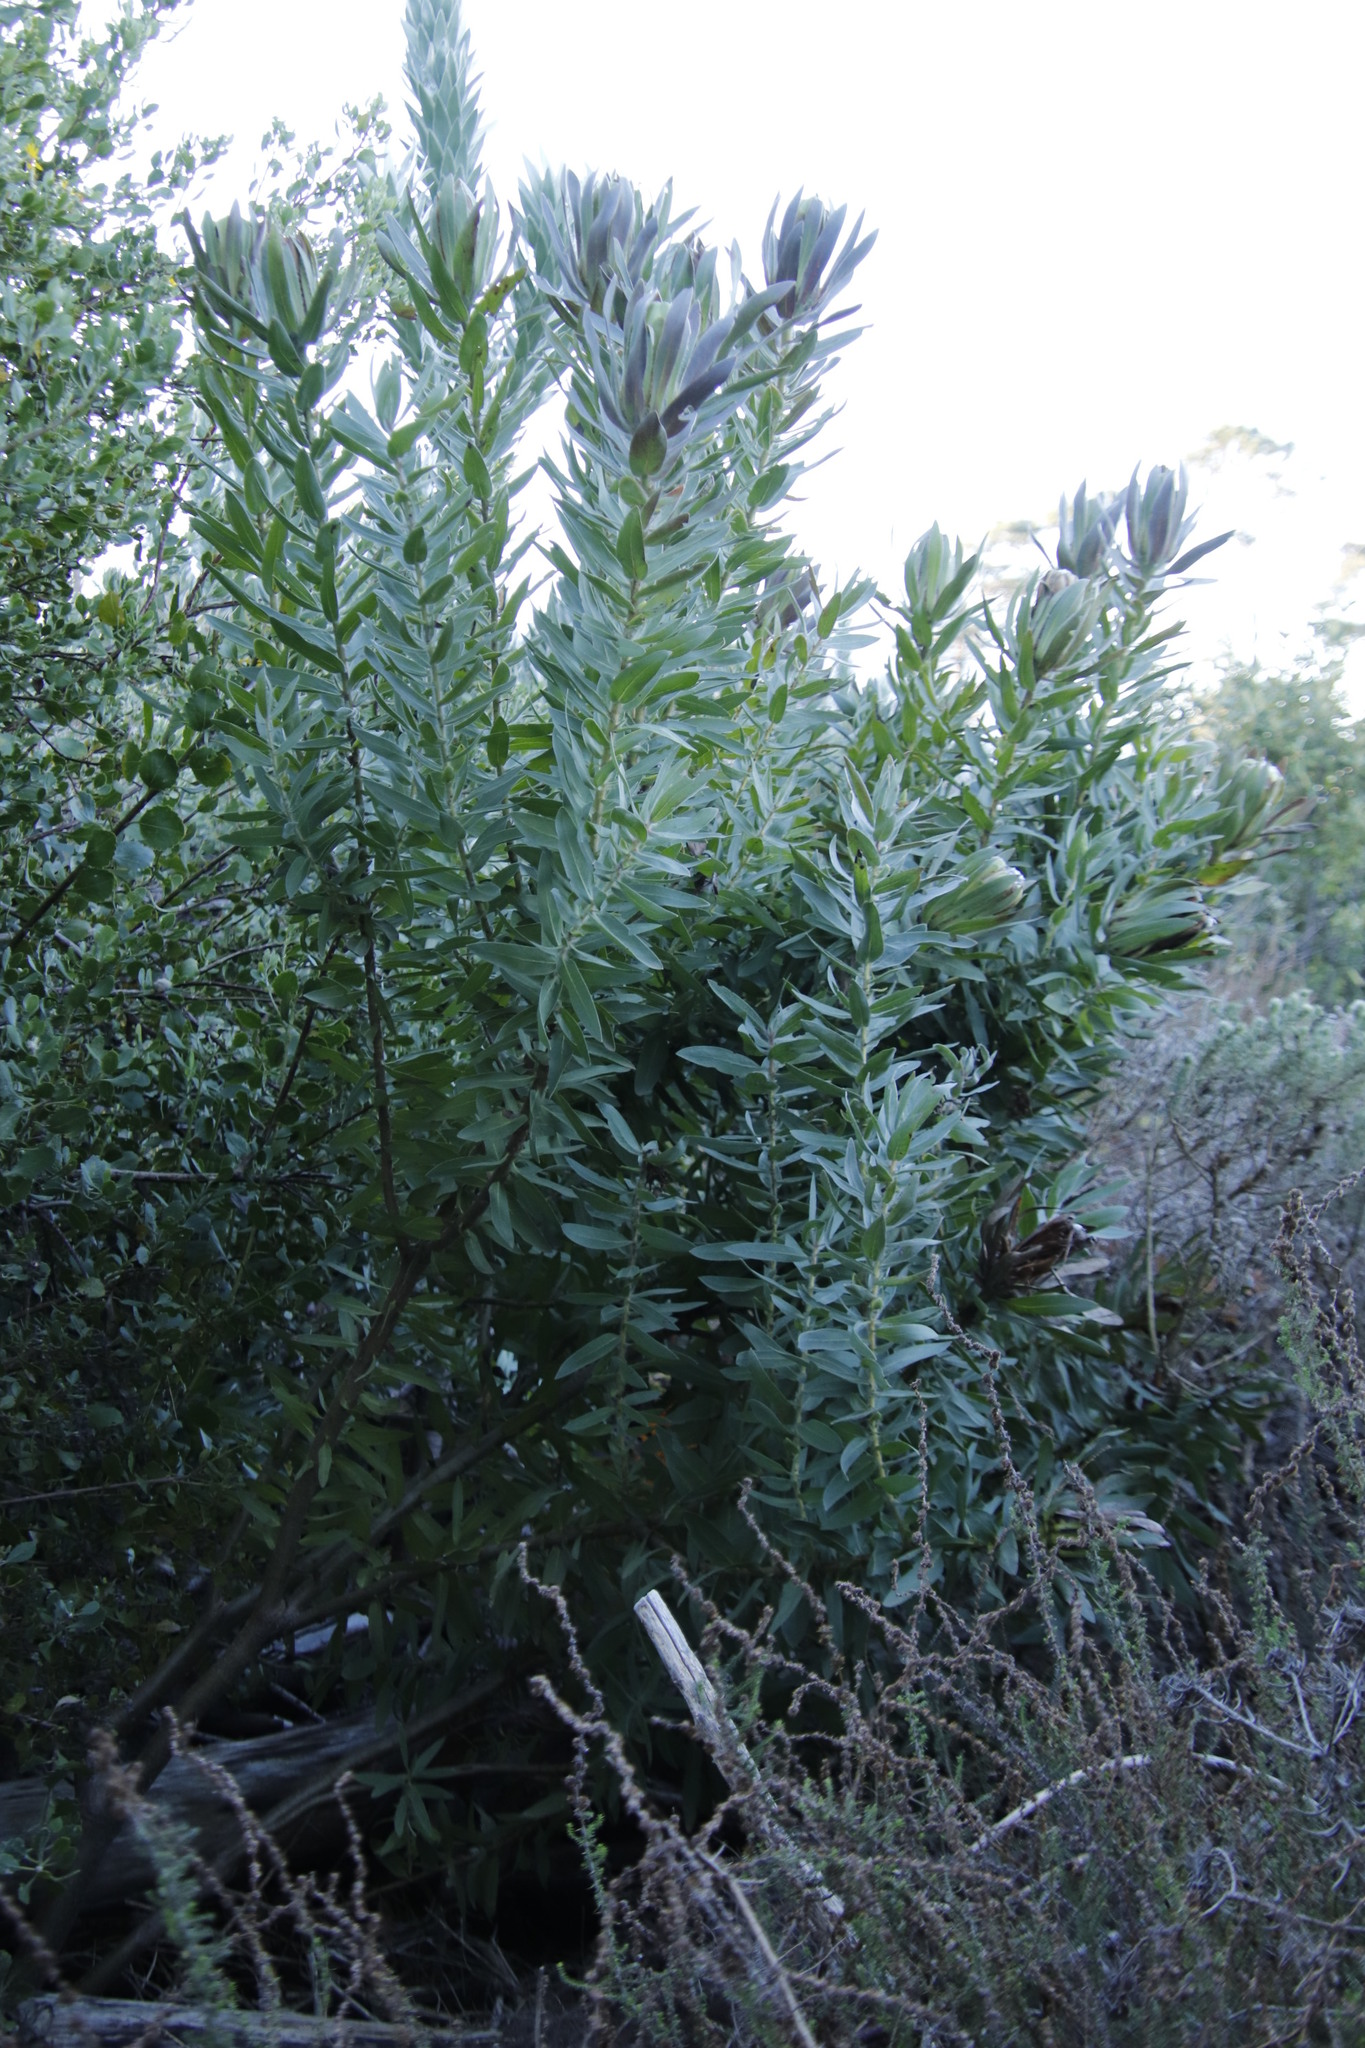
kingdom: Plantae
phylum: Tracheophyta
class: Magnoliopsida
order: Proteales
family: Proteaceae
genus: Protea
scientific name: Protea coronata
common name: Green sugarbush
